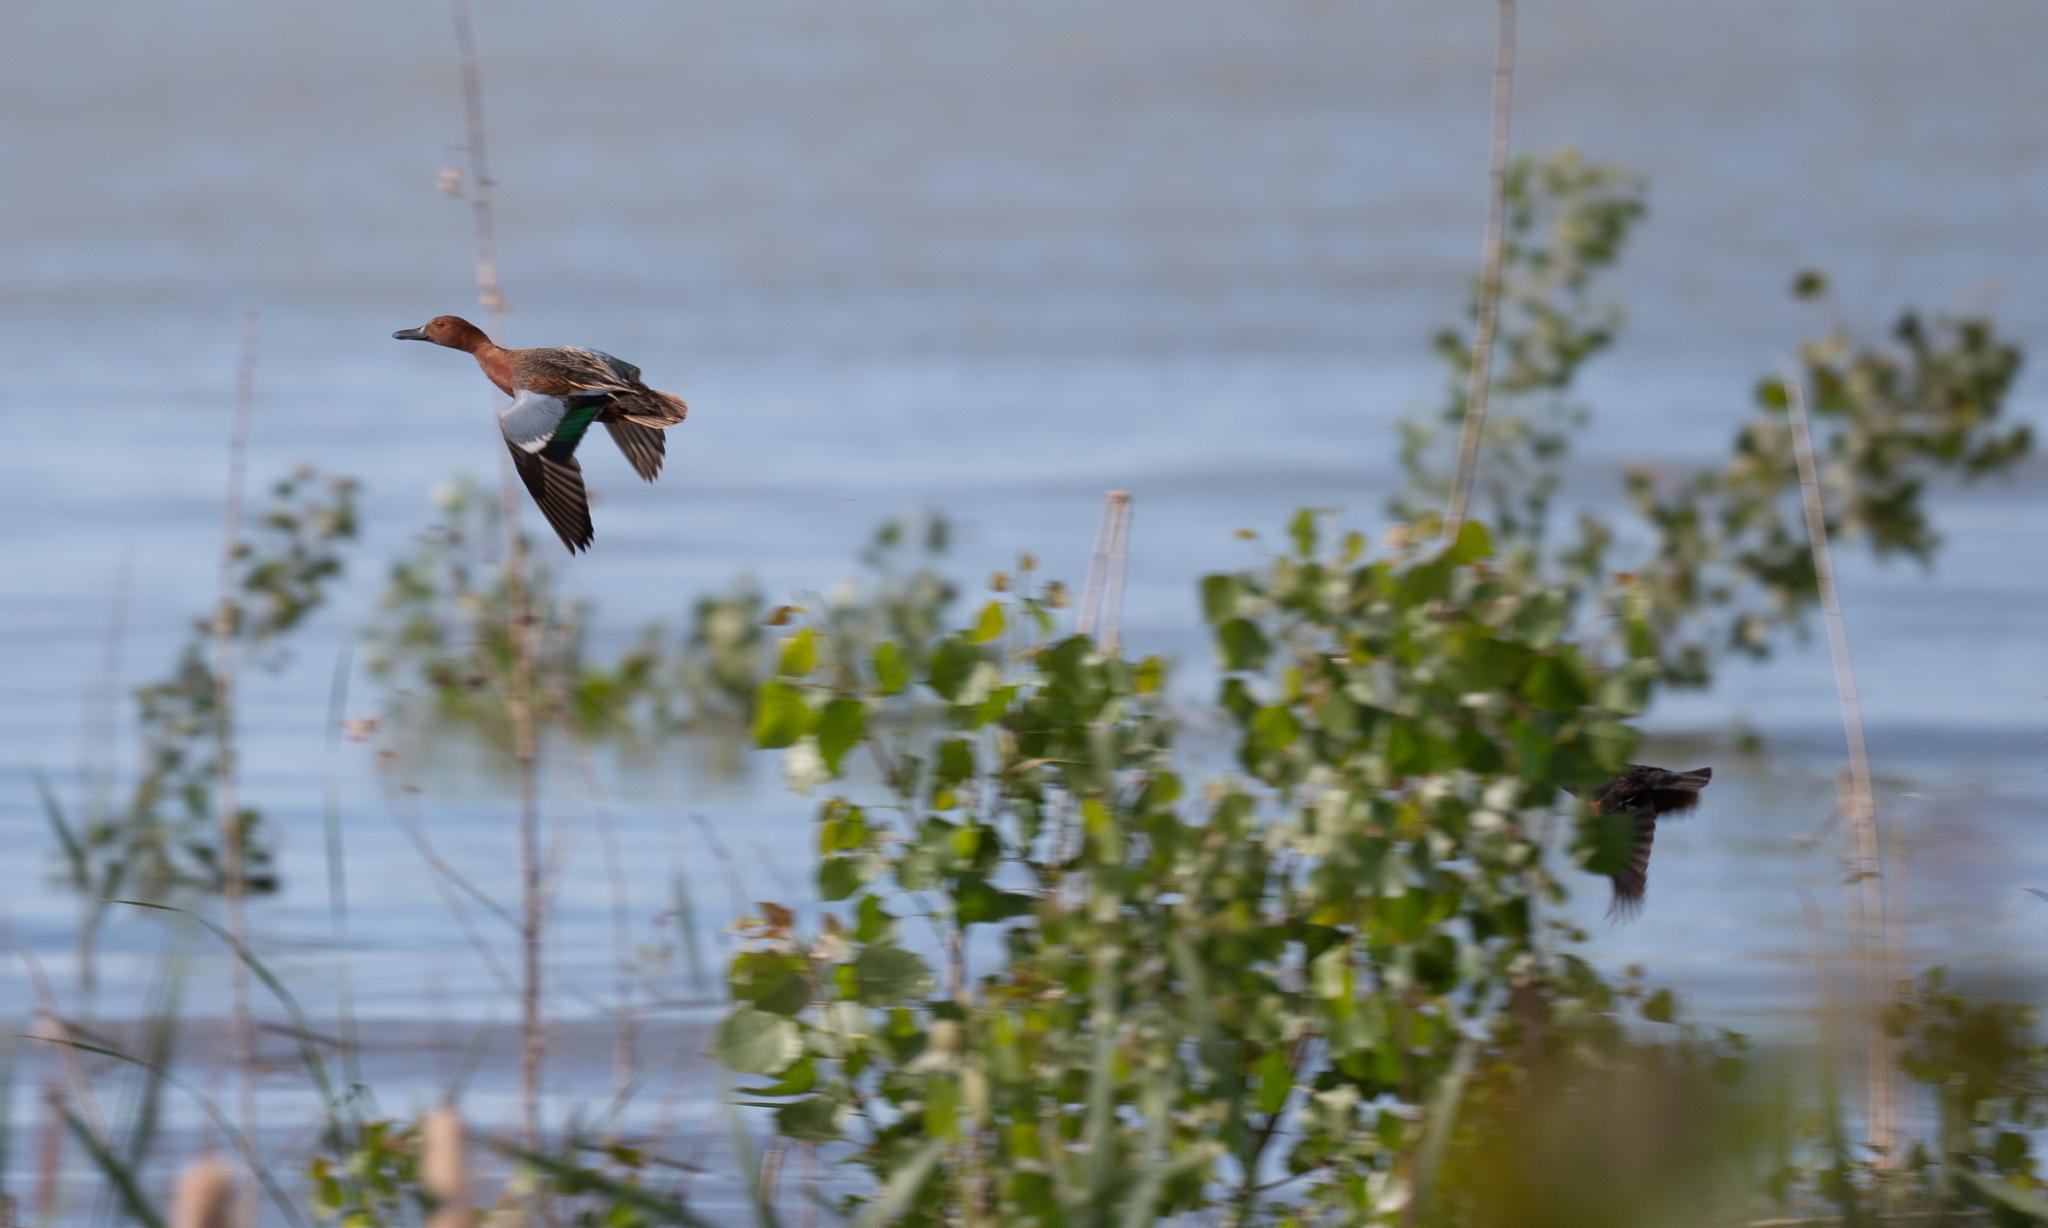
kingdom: Animalia
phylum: Chordata
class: Aves
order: Anseriformes
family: Anatidae
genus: Spatula
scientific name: Spatula cyanoptera
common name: Cinnamon teal
